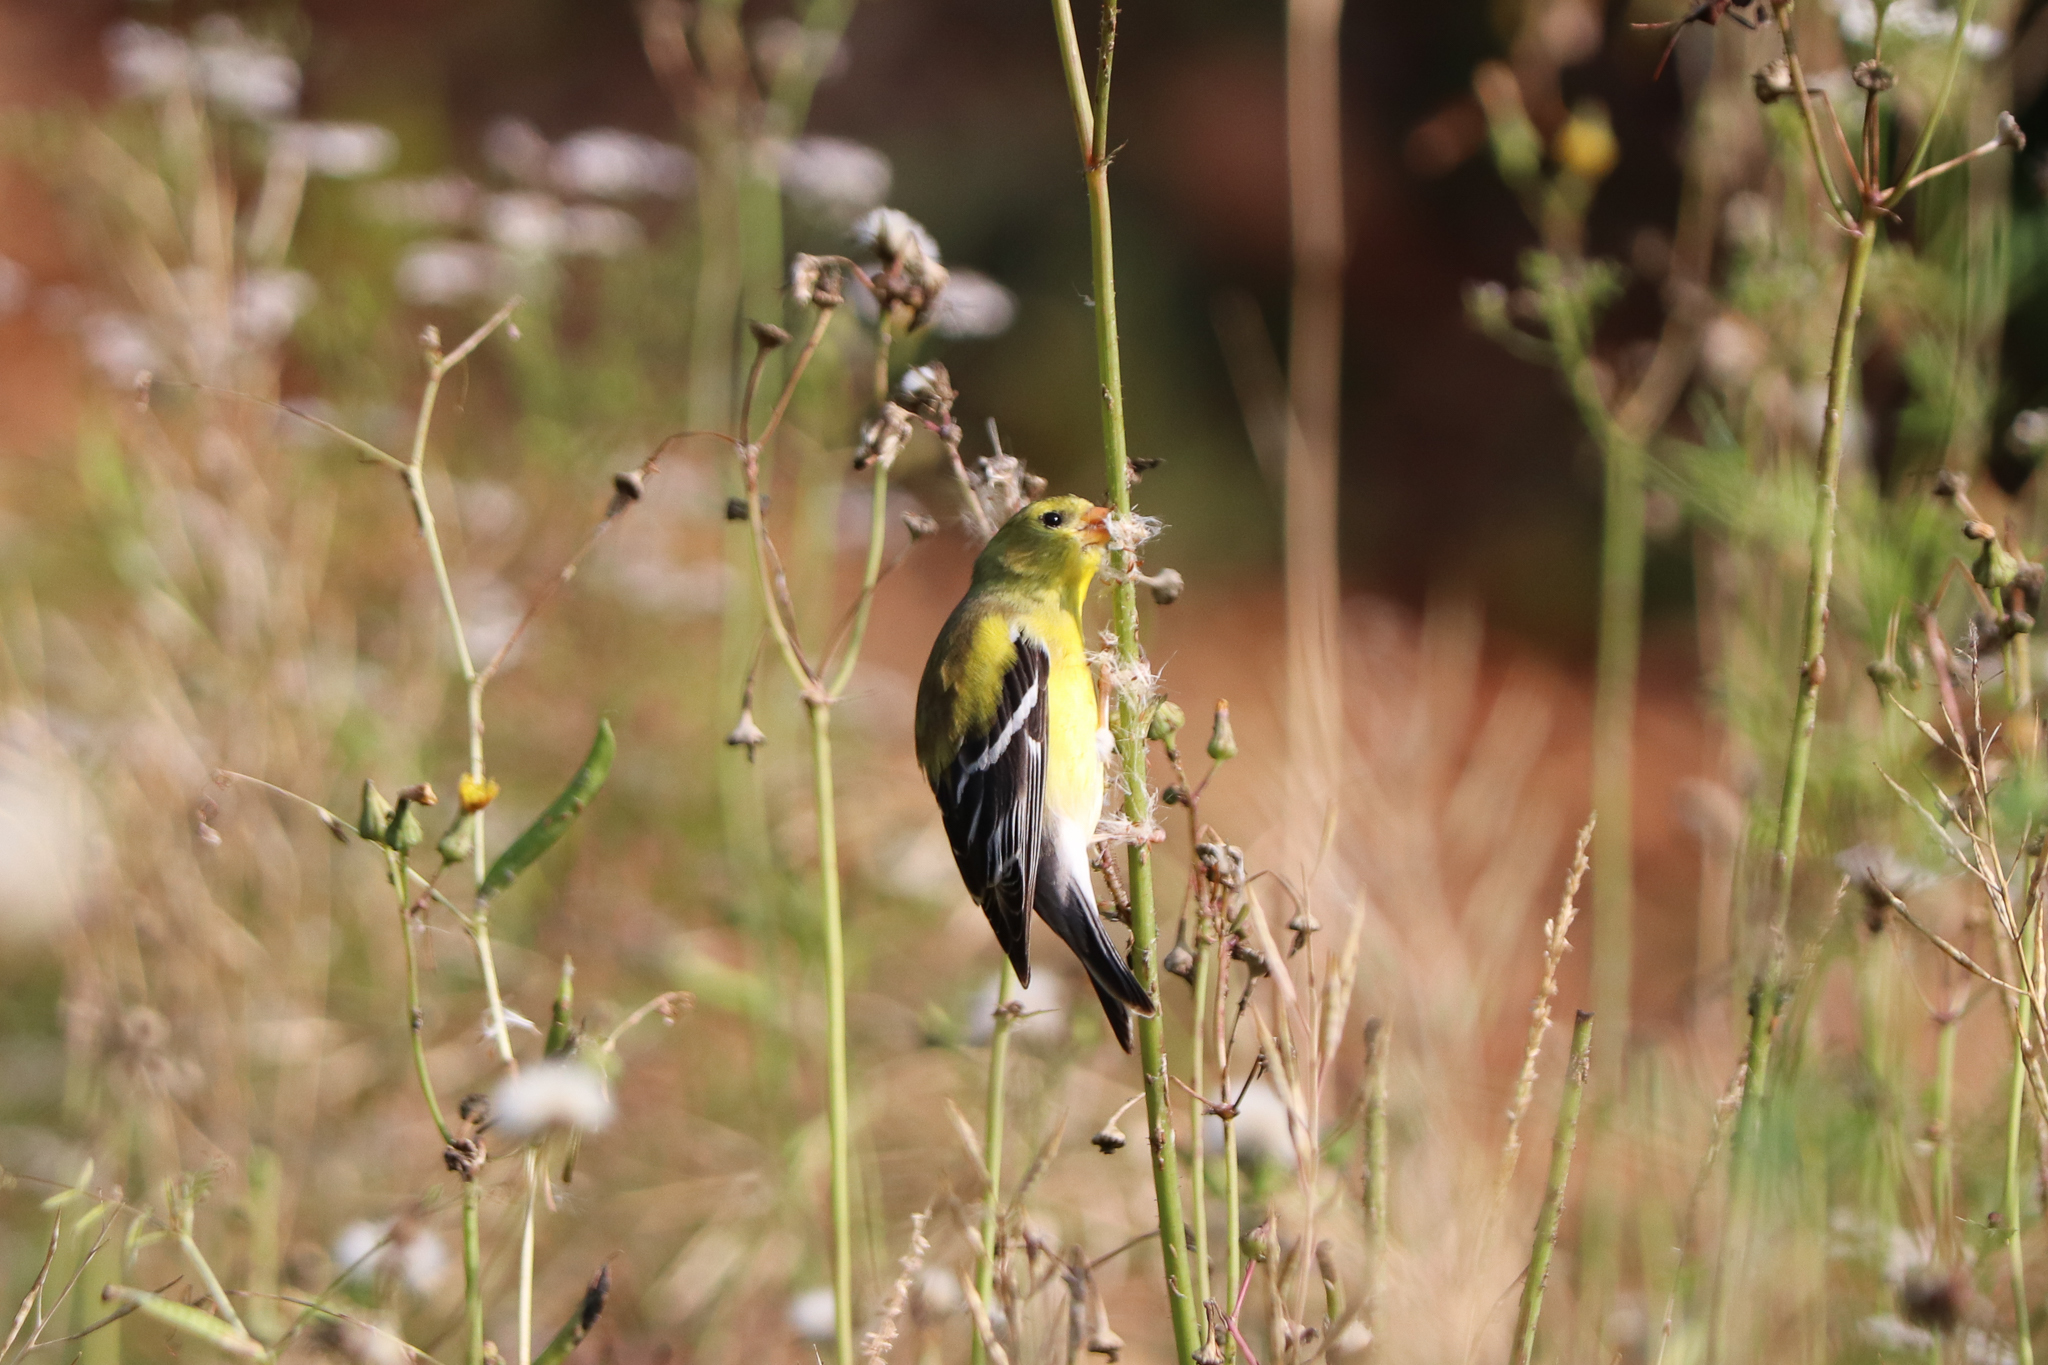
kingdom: Animalia
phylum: Chordata
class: Aves
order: Passeriformes
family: Fringillidae
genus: Spinus
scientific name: Spinus tristis
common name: American goldfinch
